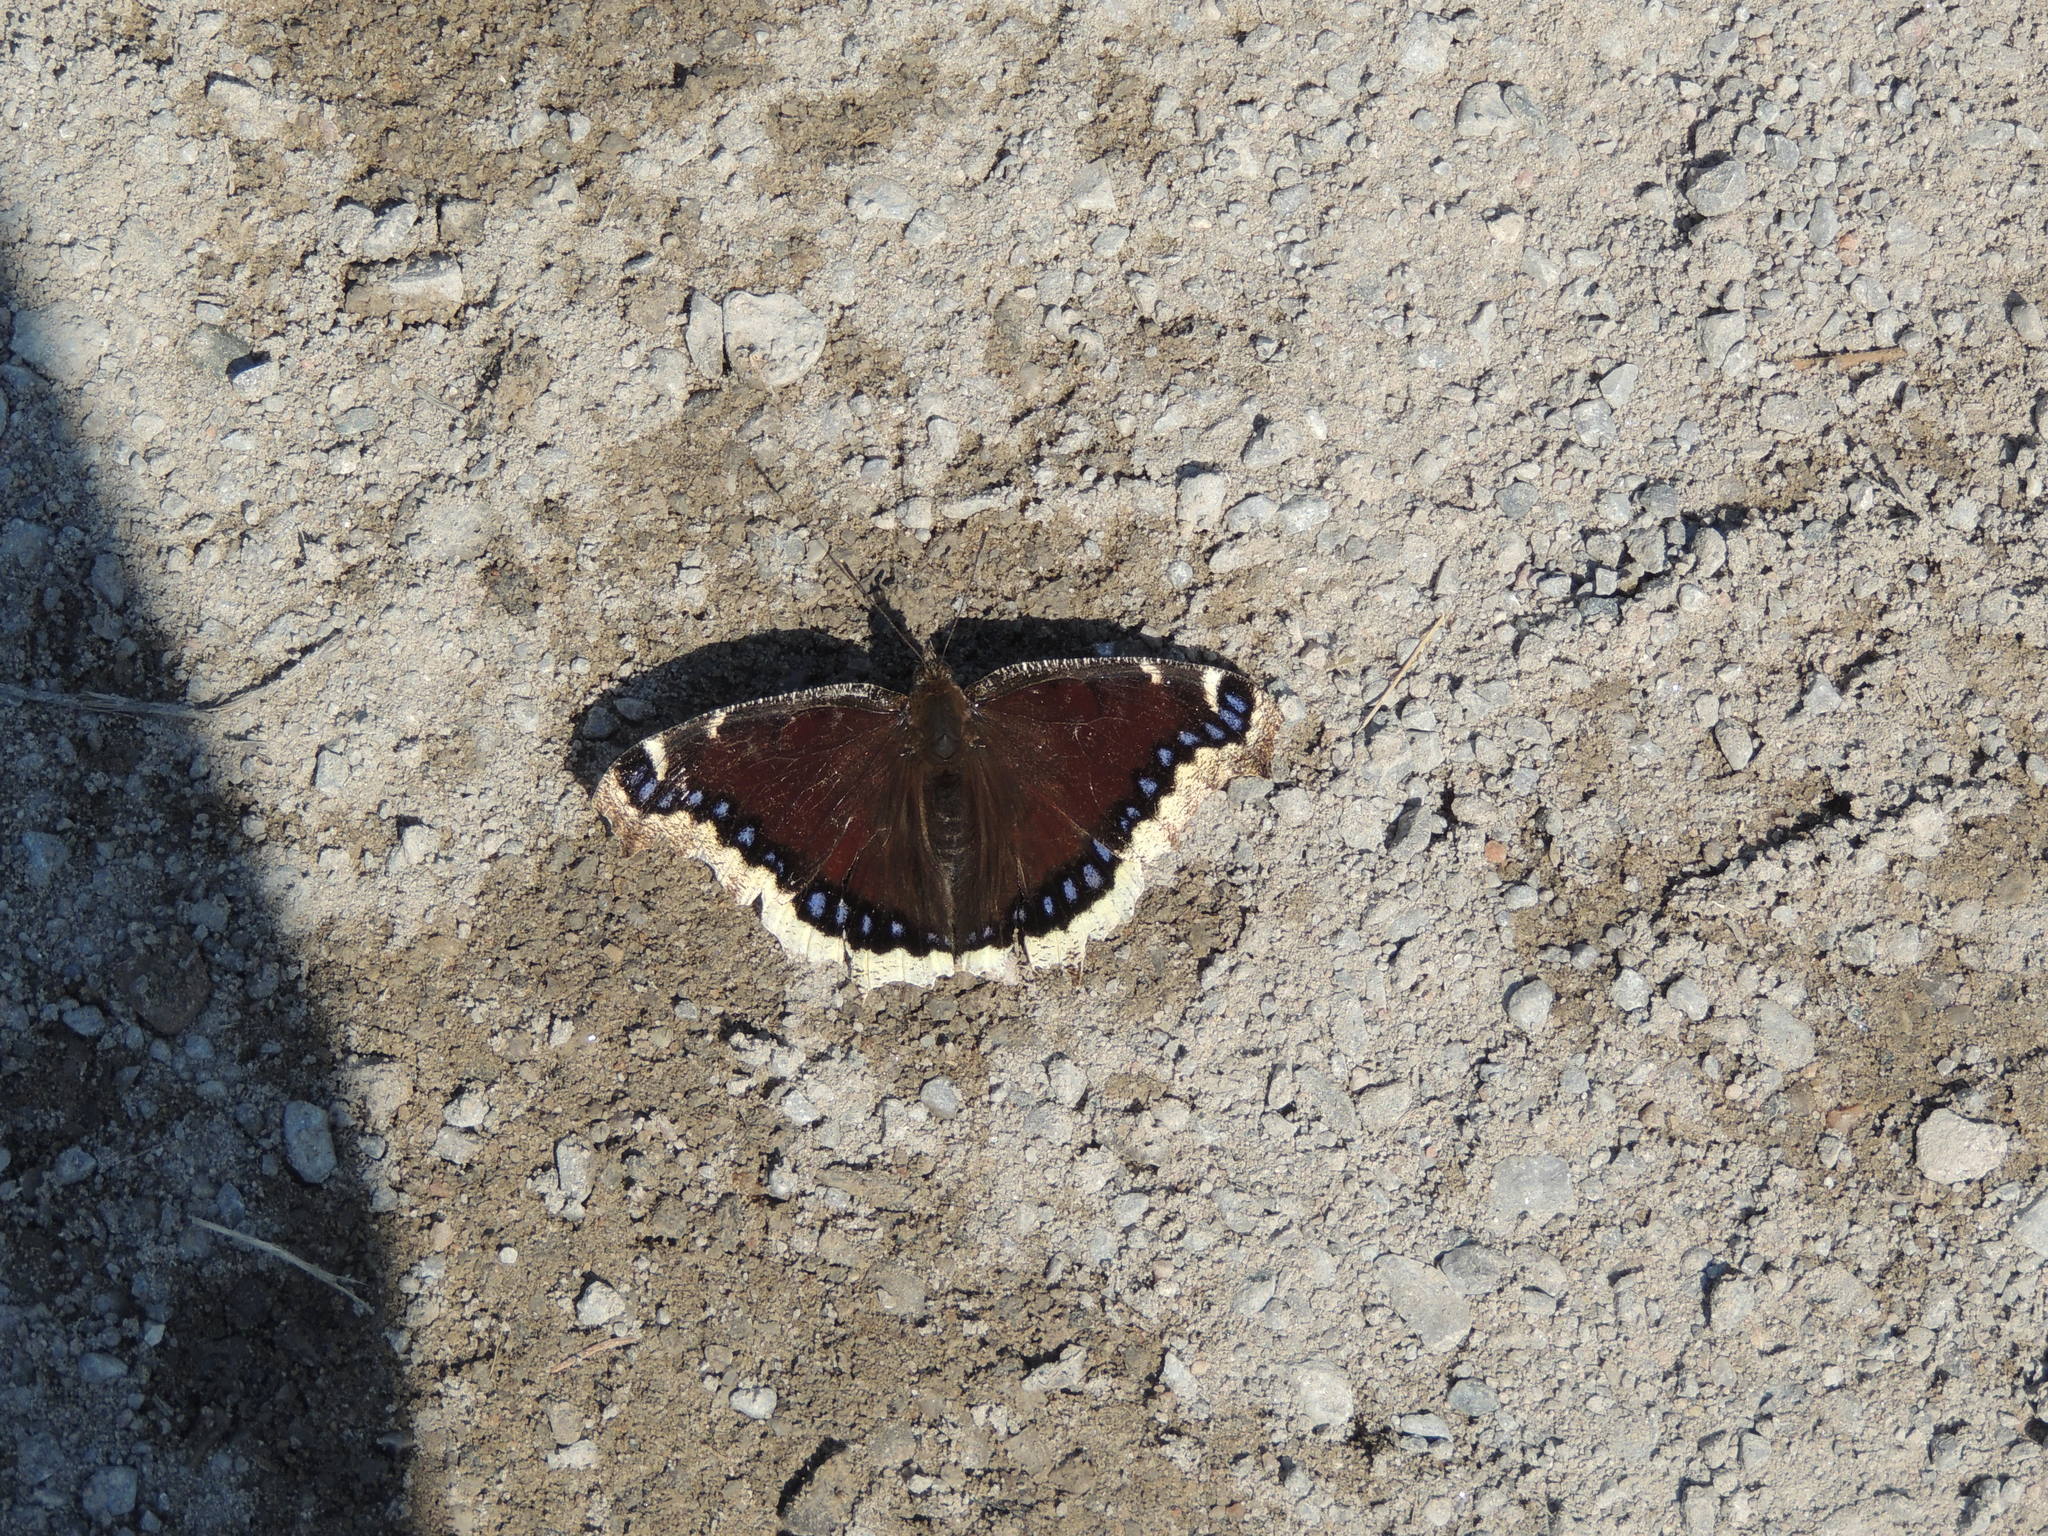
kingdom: Animalia
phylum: Arthropoda
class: Insecta
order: Lepidoptera
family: Nymphalidae
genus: Nymphalis
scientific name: Nymphalis antiopa
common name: Camberwell beauty
